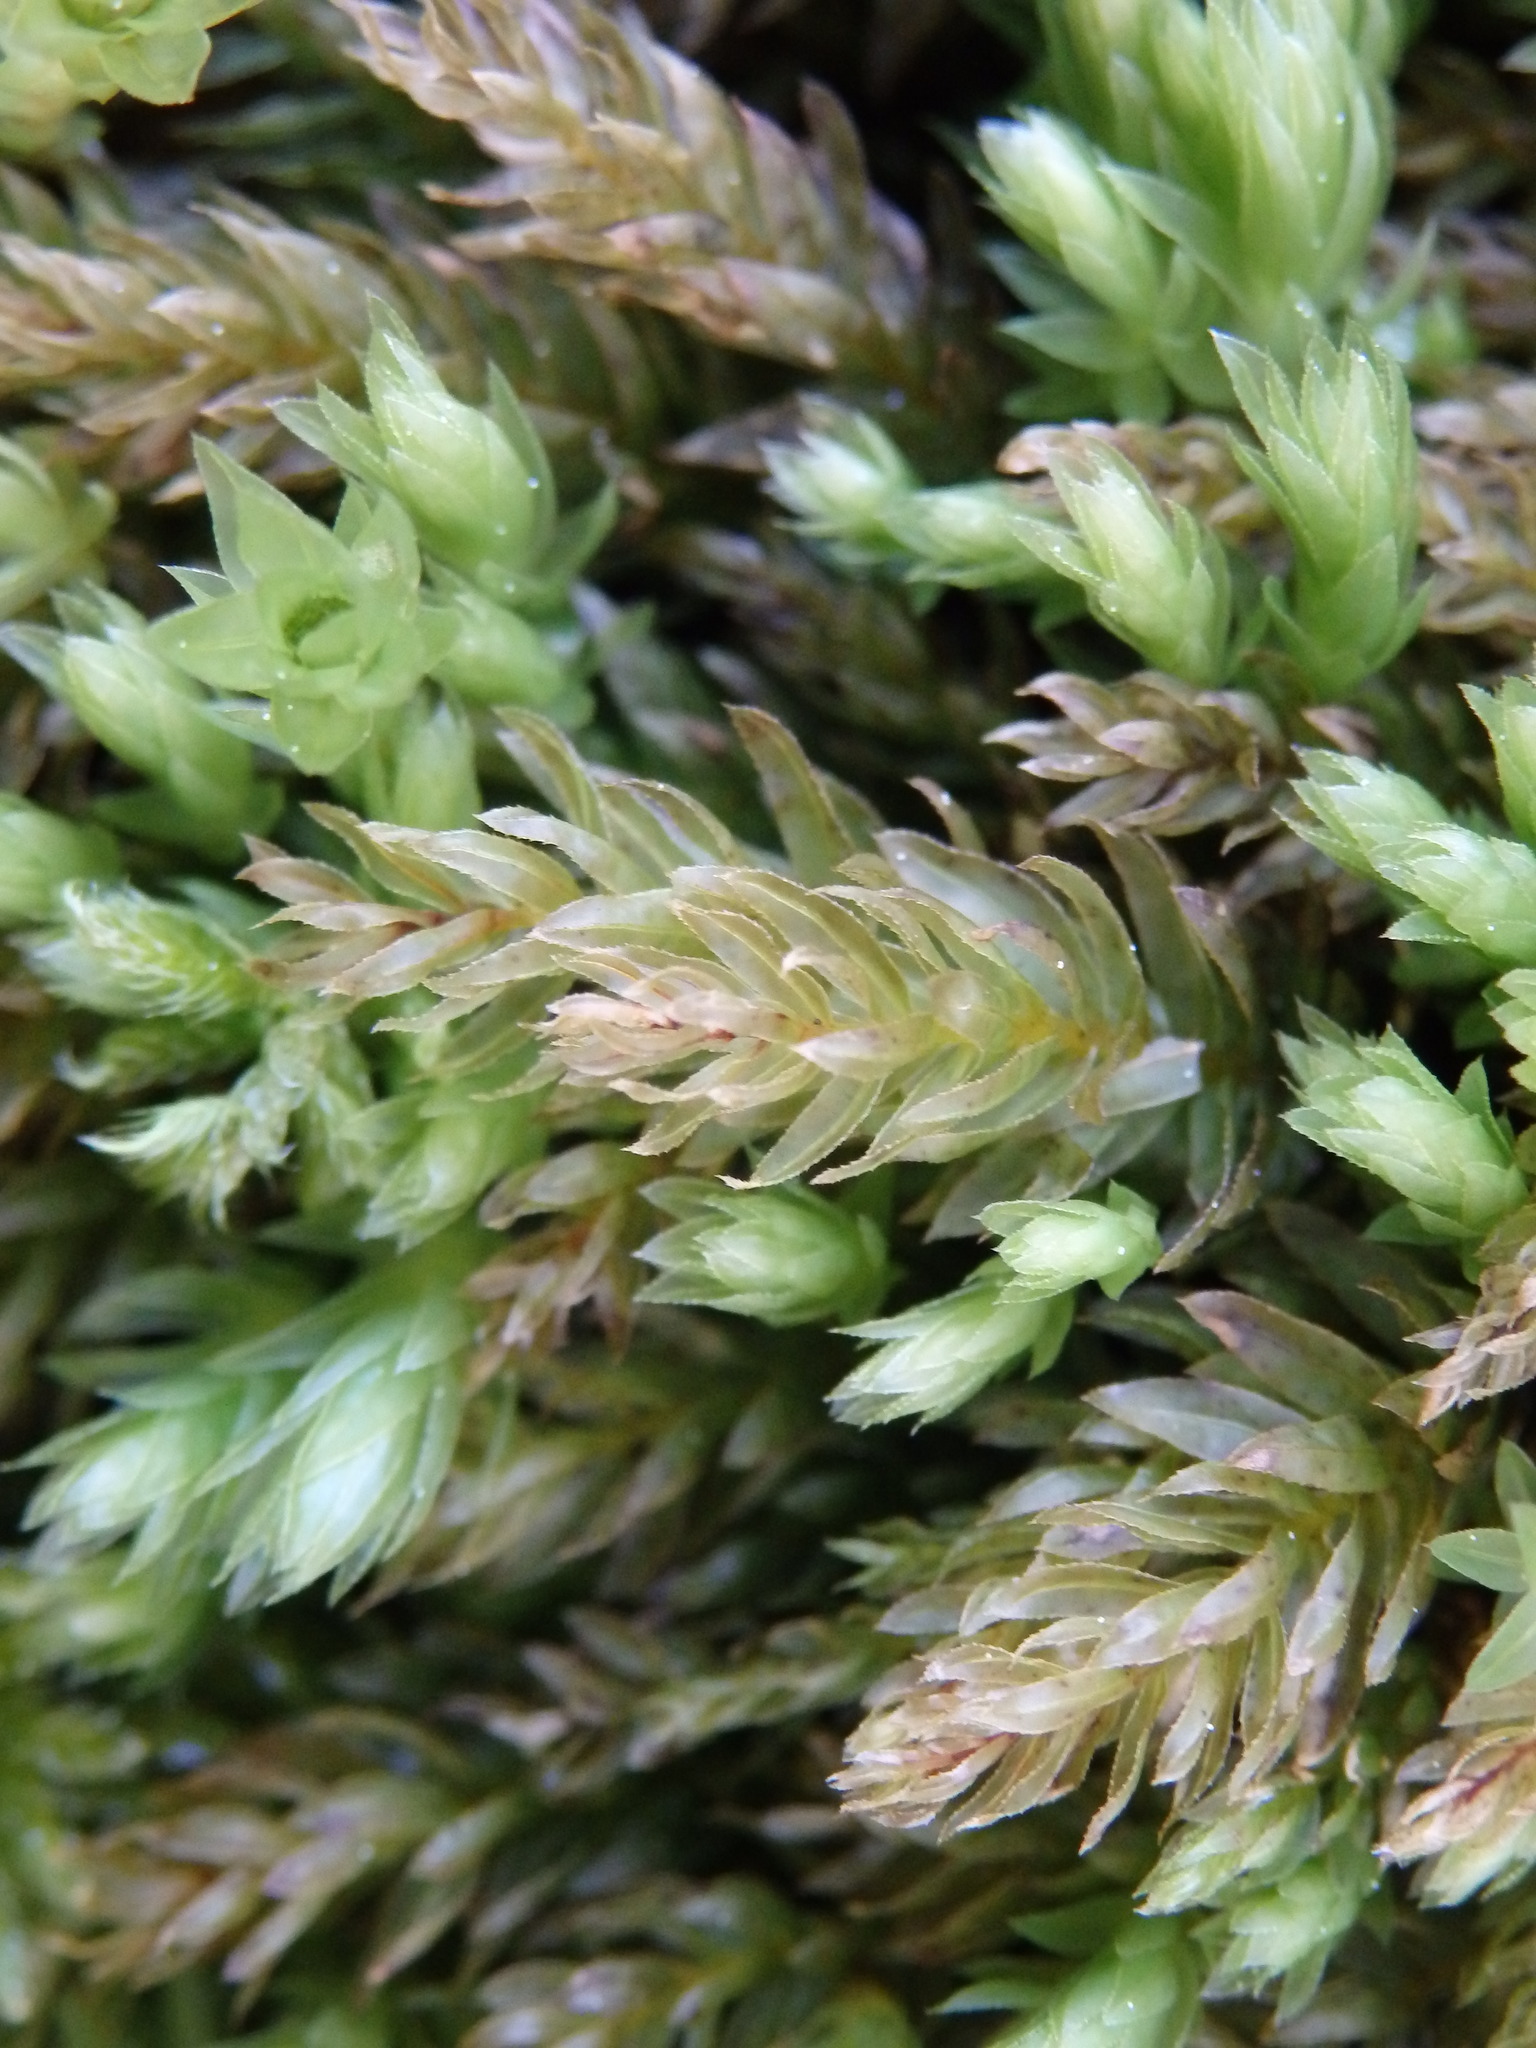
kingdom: Plantae
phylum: Bryophyta
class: Bryopsida
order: Bryales
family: Mniaceae
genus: Mnium
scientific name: Mnium hornum
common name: Swan's-neck leafy moss
